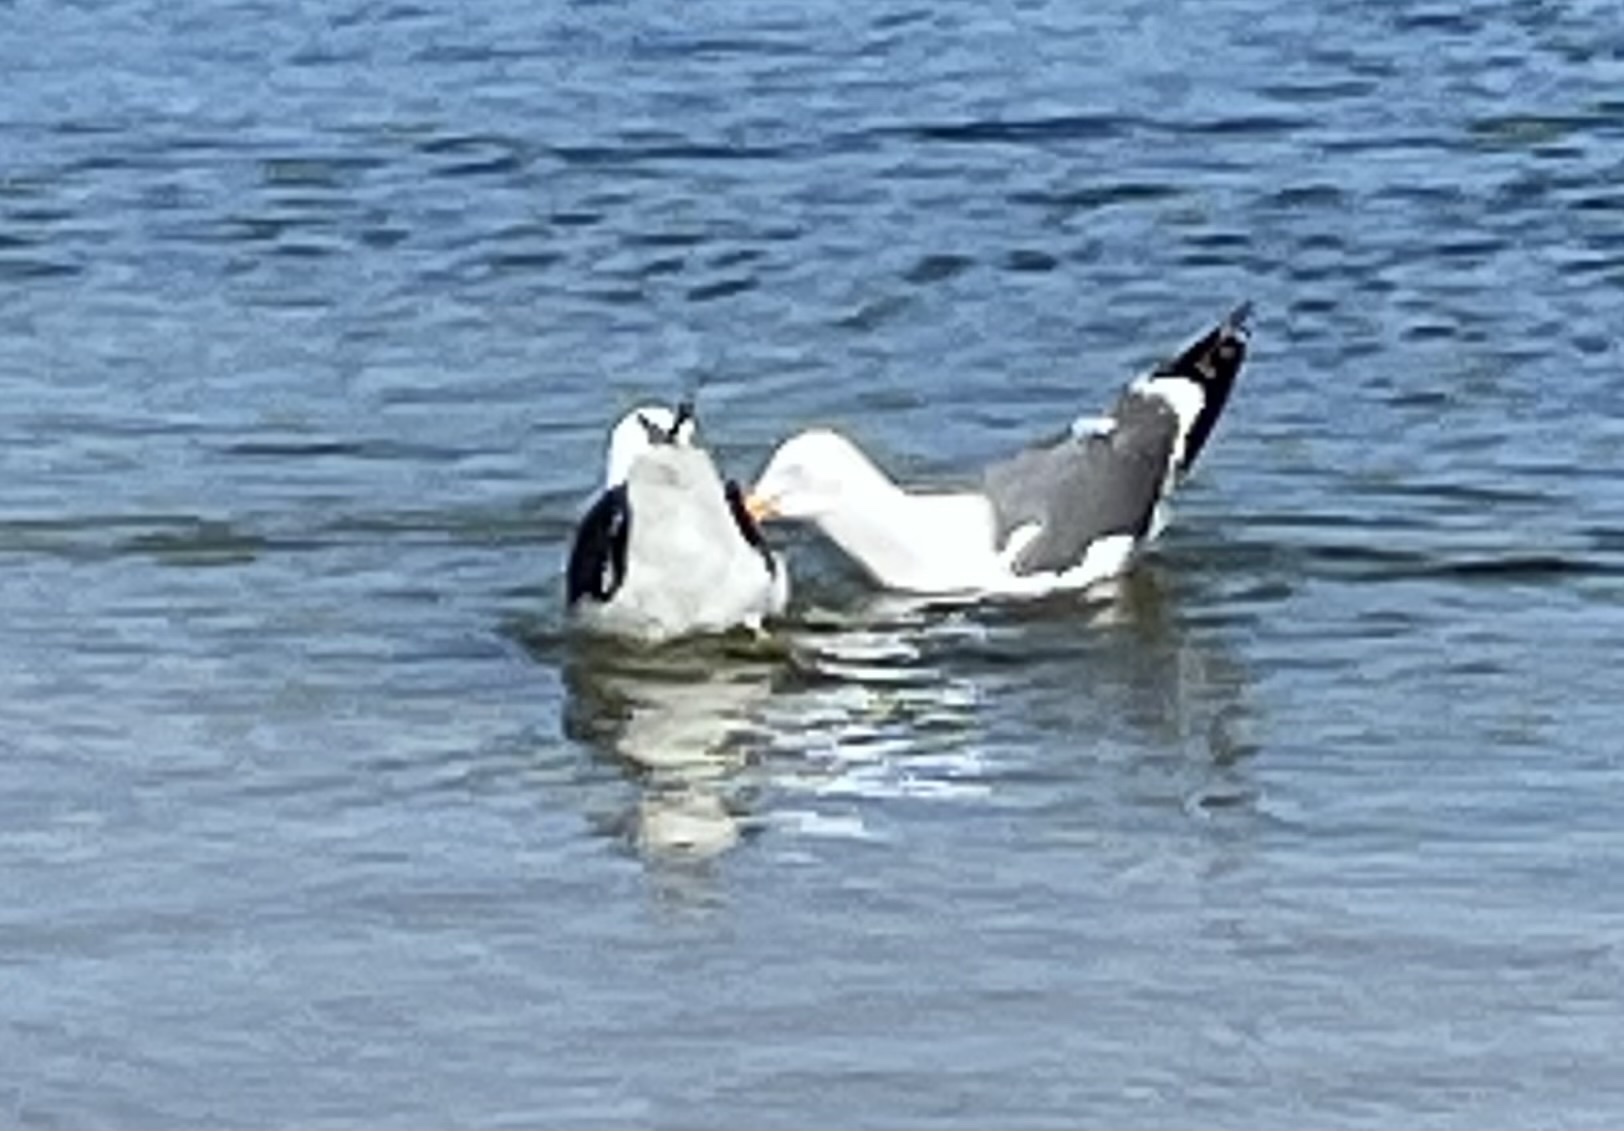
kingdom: Animalia
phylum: Chordata
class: Aves
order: Charadriiformes
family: Laridae
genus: Larus
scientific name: Larus occidentalis
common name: Western gull
